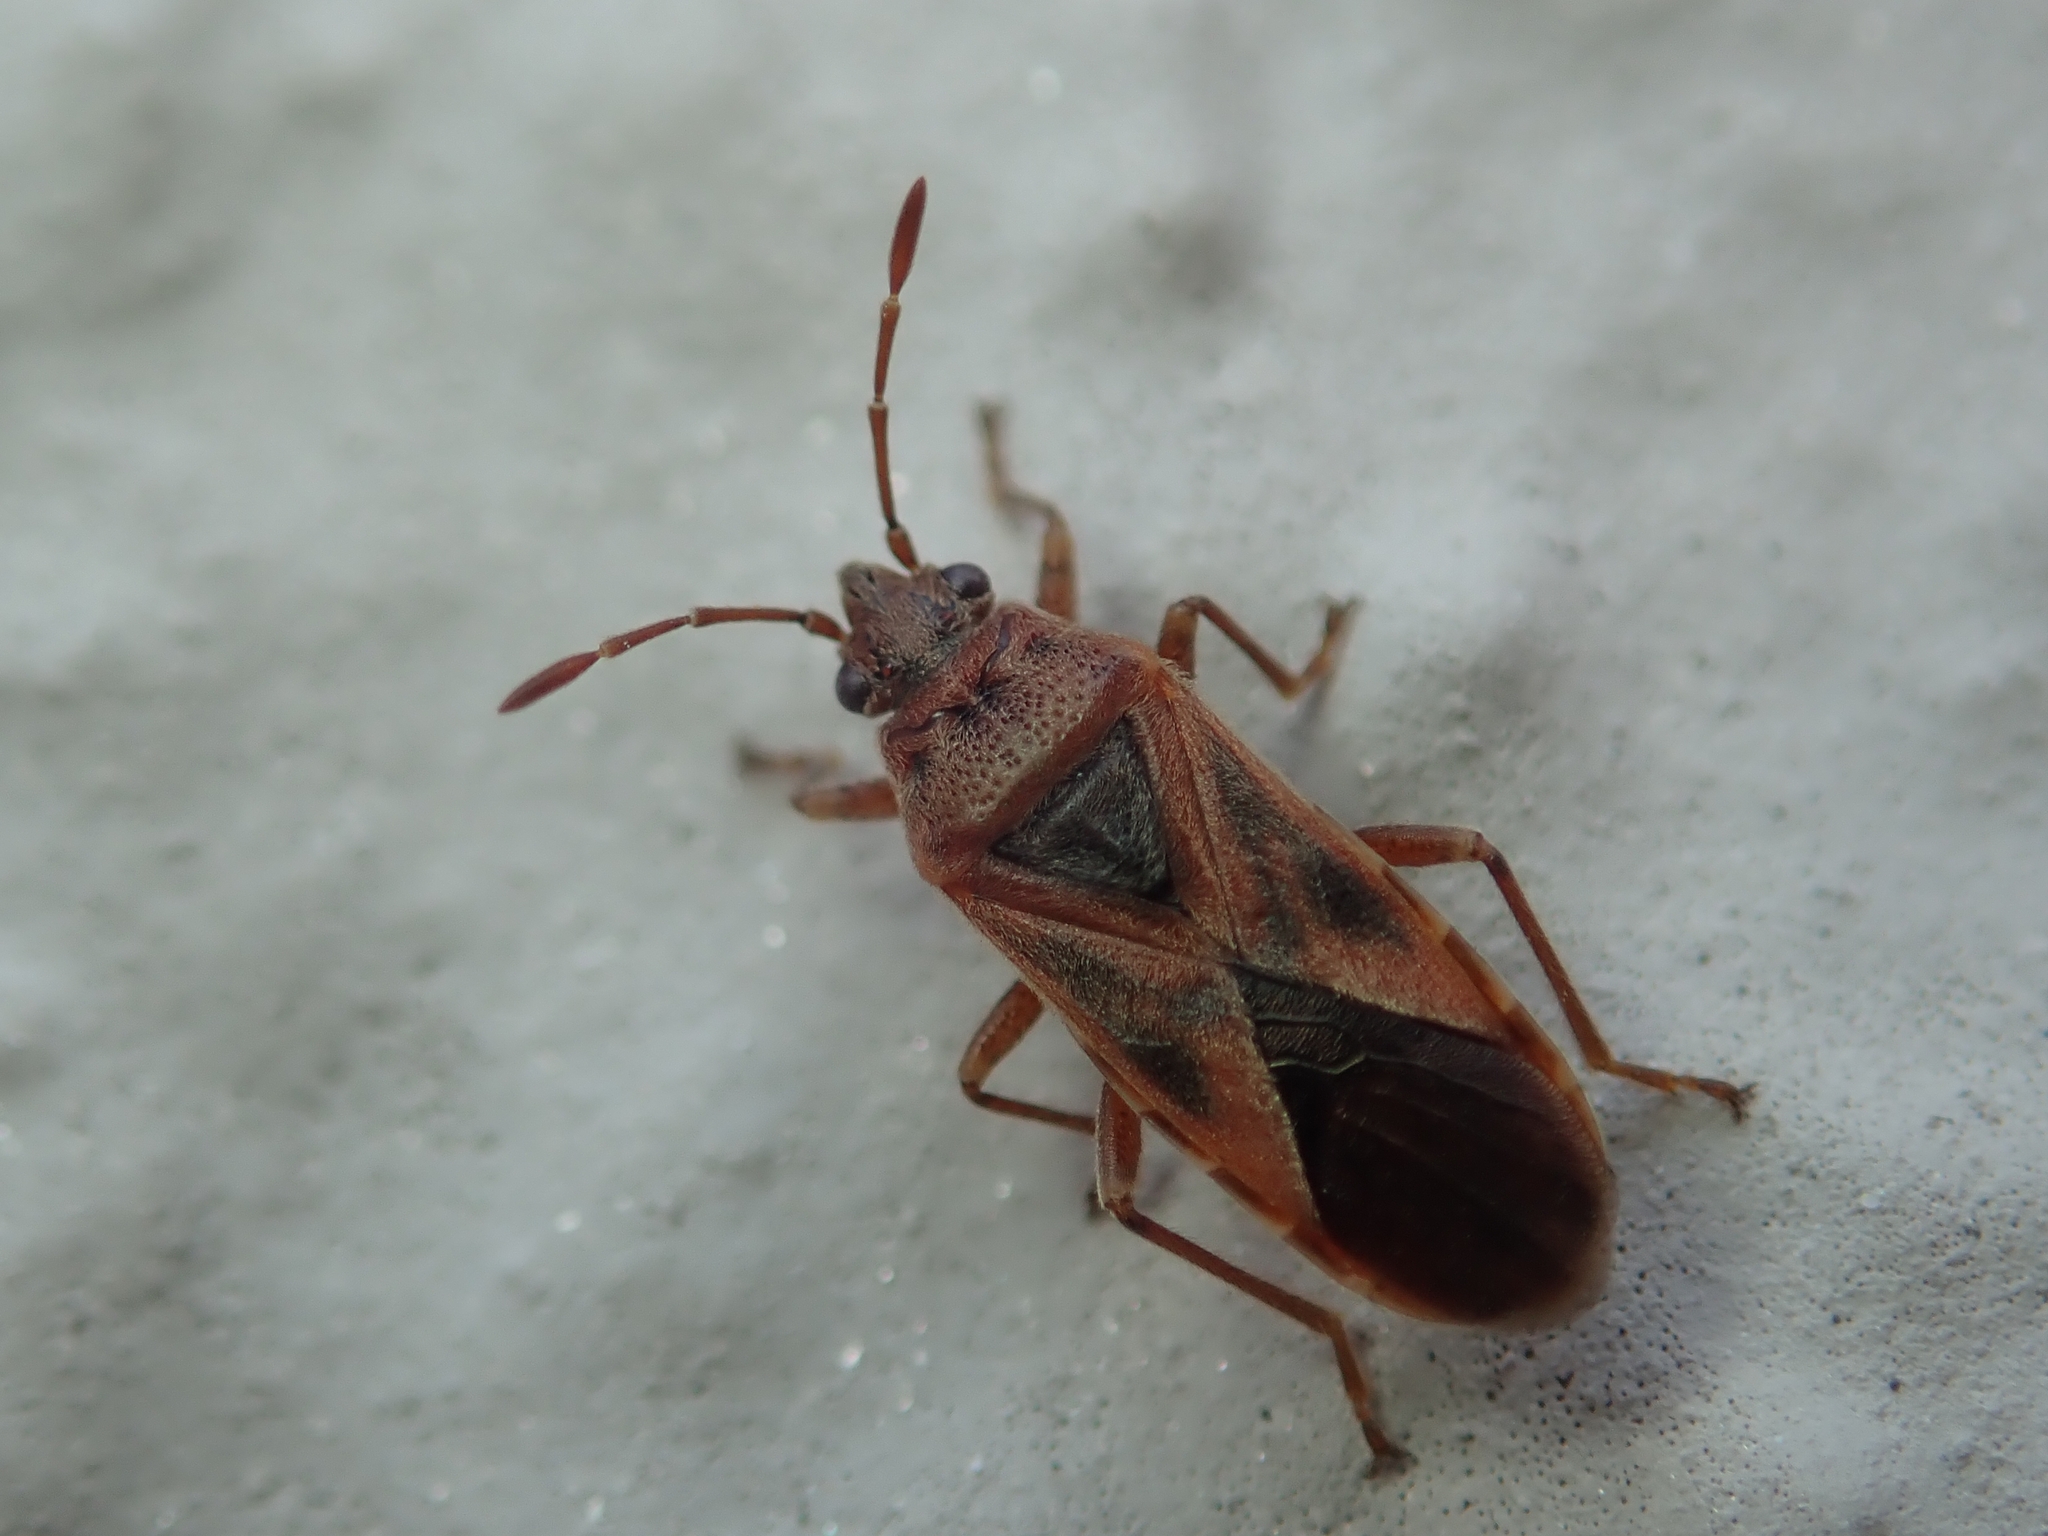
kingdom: Animalia
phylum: Arthropoda
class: Insecta
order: Hemiptera
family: Lygaeidae
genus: Arocatus
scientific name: Arocatus roeselii
